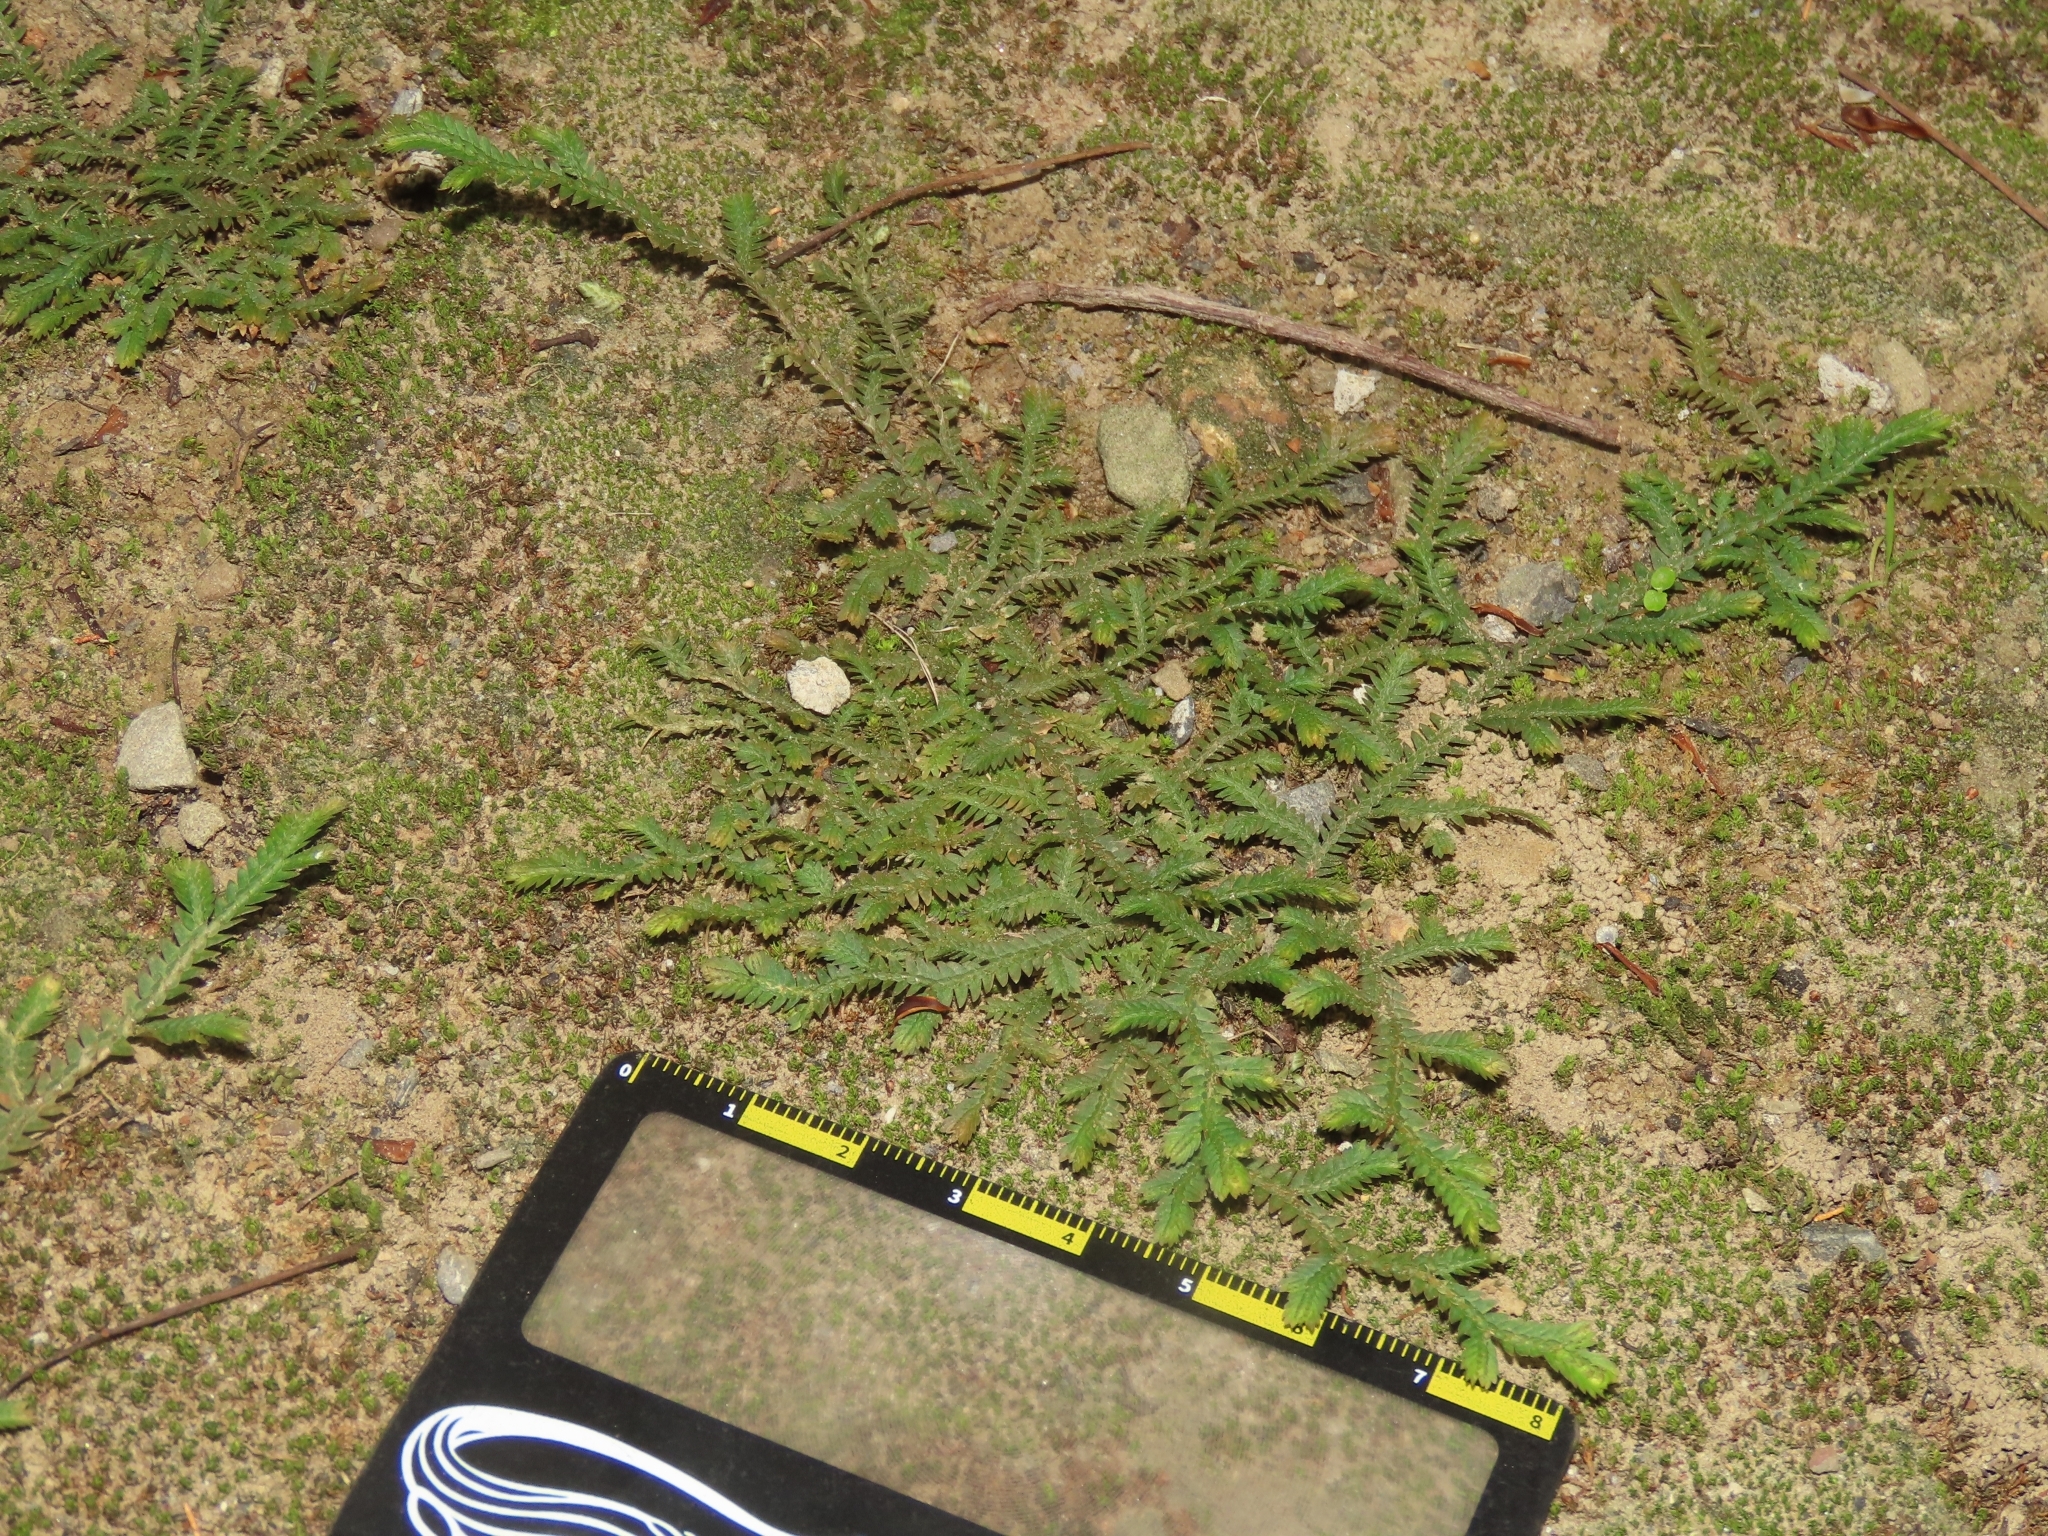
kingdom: Plantae
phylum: Tracheophyta
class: Lycopodiopsida
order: Selaginellales
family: Selaginellaceae
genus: Selaginella
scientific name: Selaginella repanda
